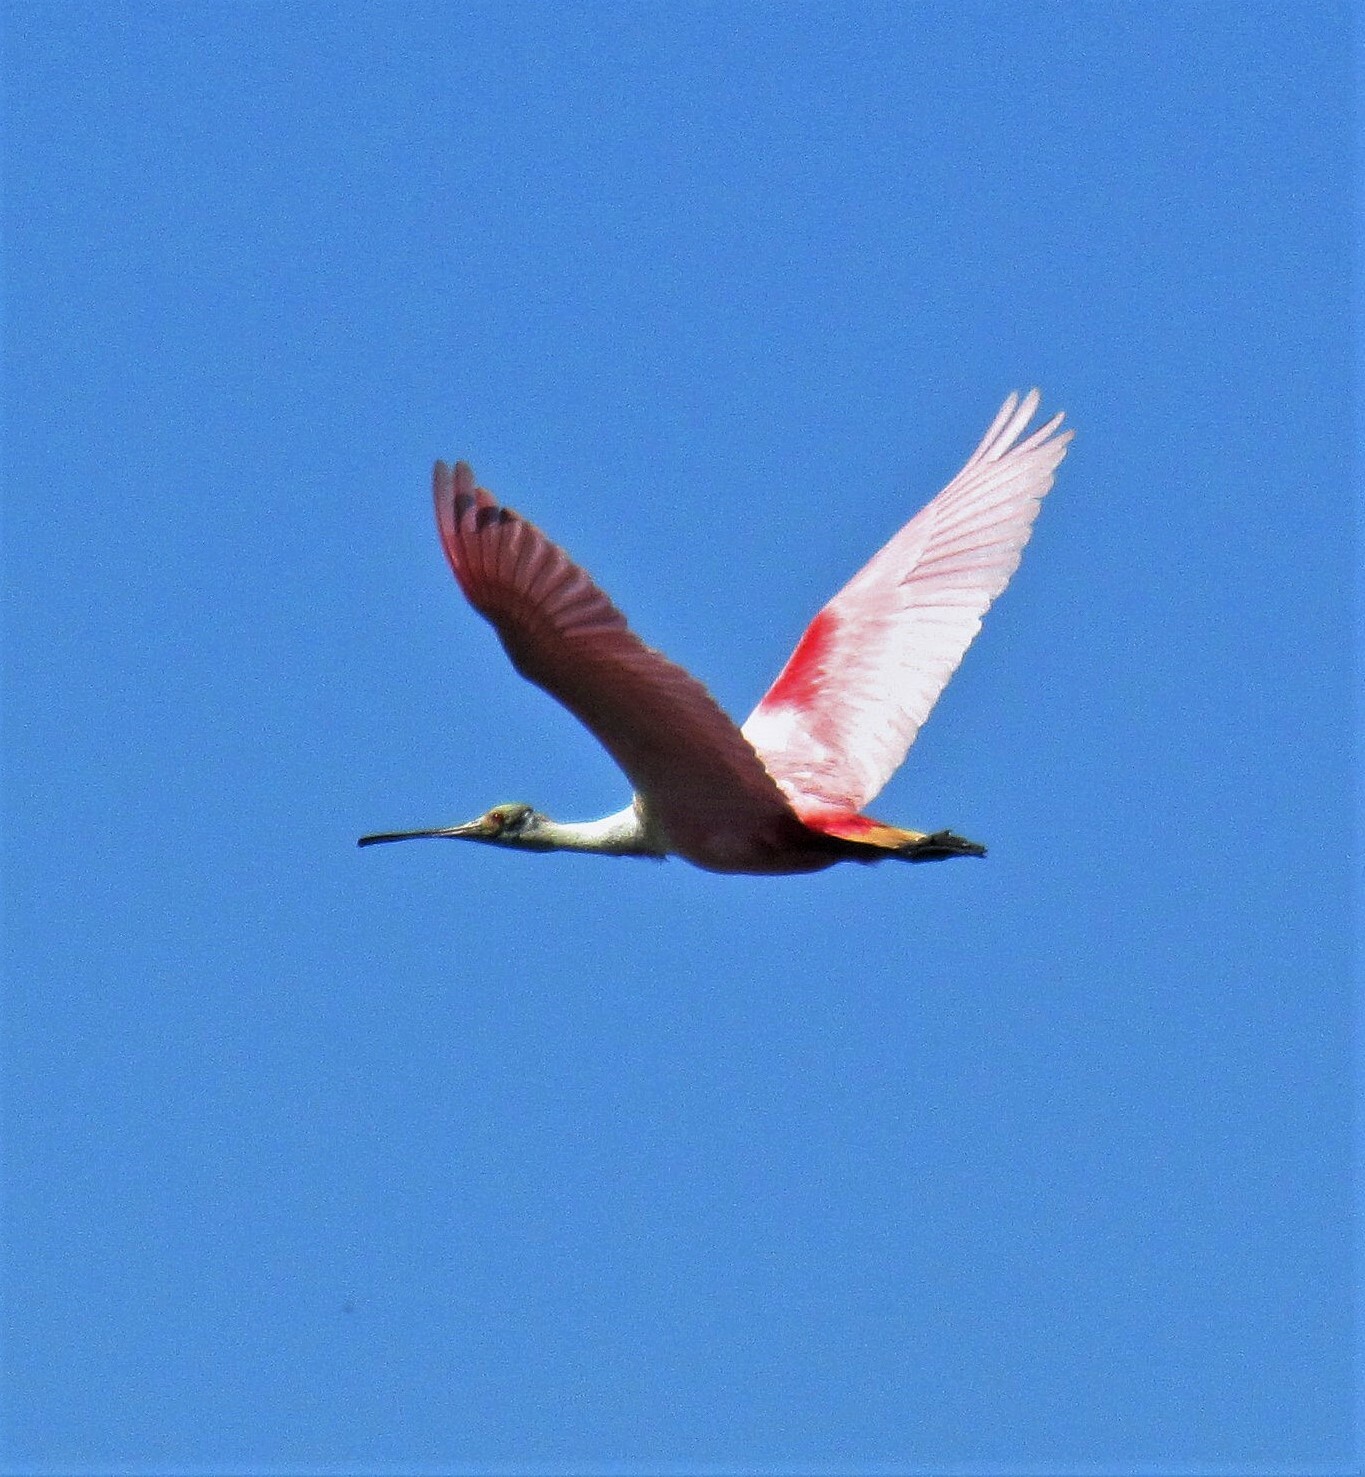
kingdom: Animalia
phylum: Chordata
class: Aves
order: Pelecaniformes
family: Threskiornithidae
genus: Platalea
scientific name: Platalea ajaja
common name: Roseate spoonbill
